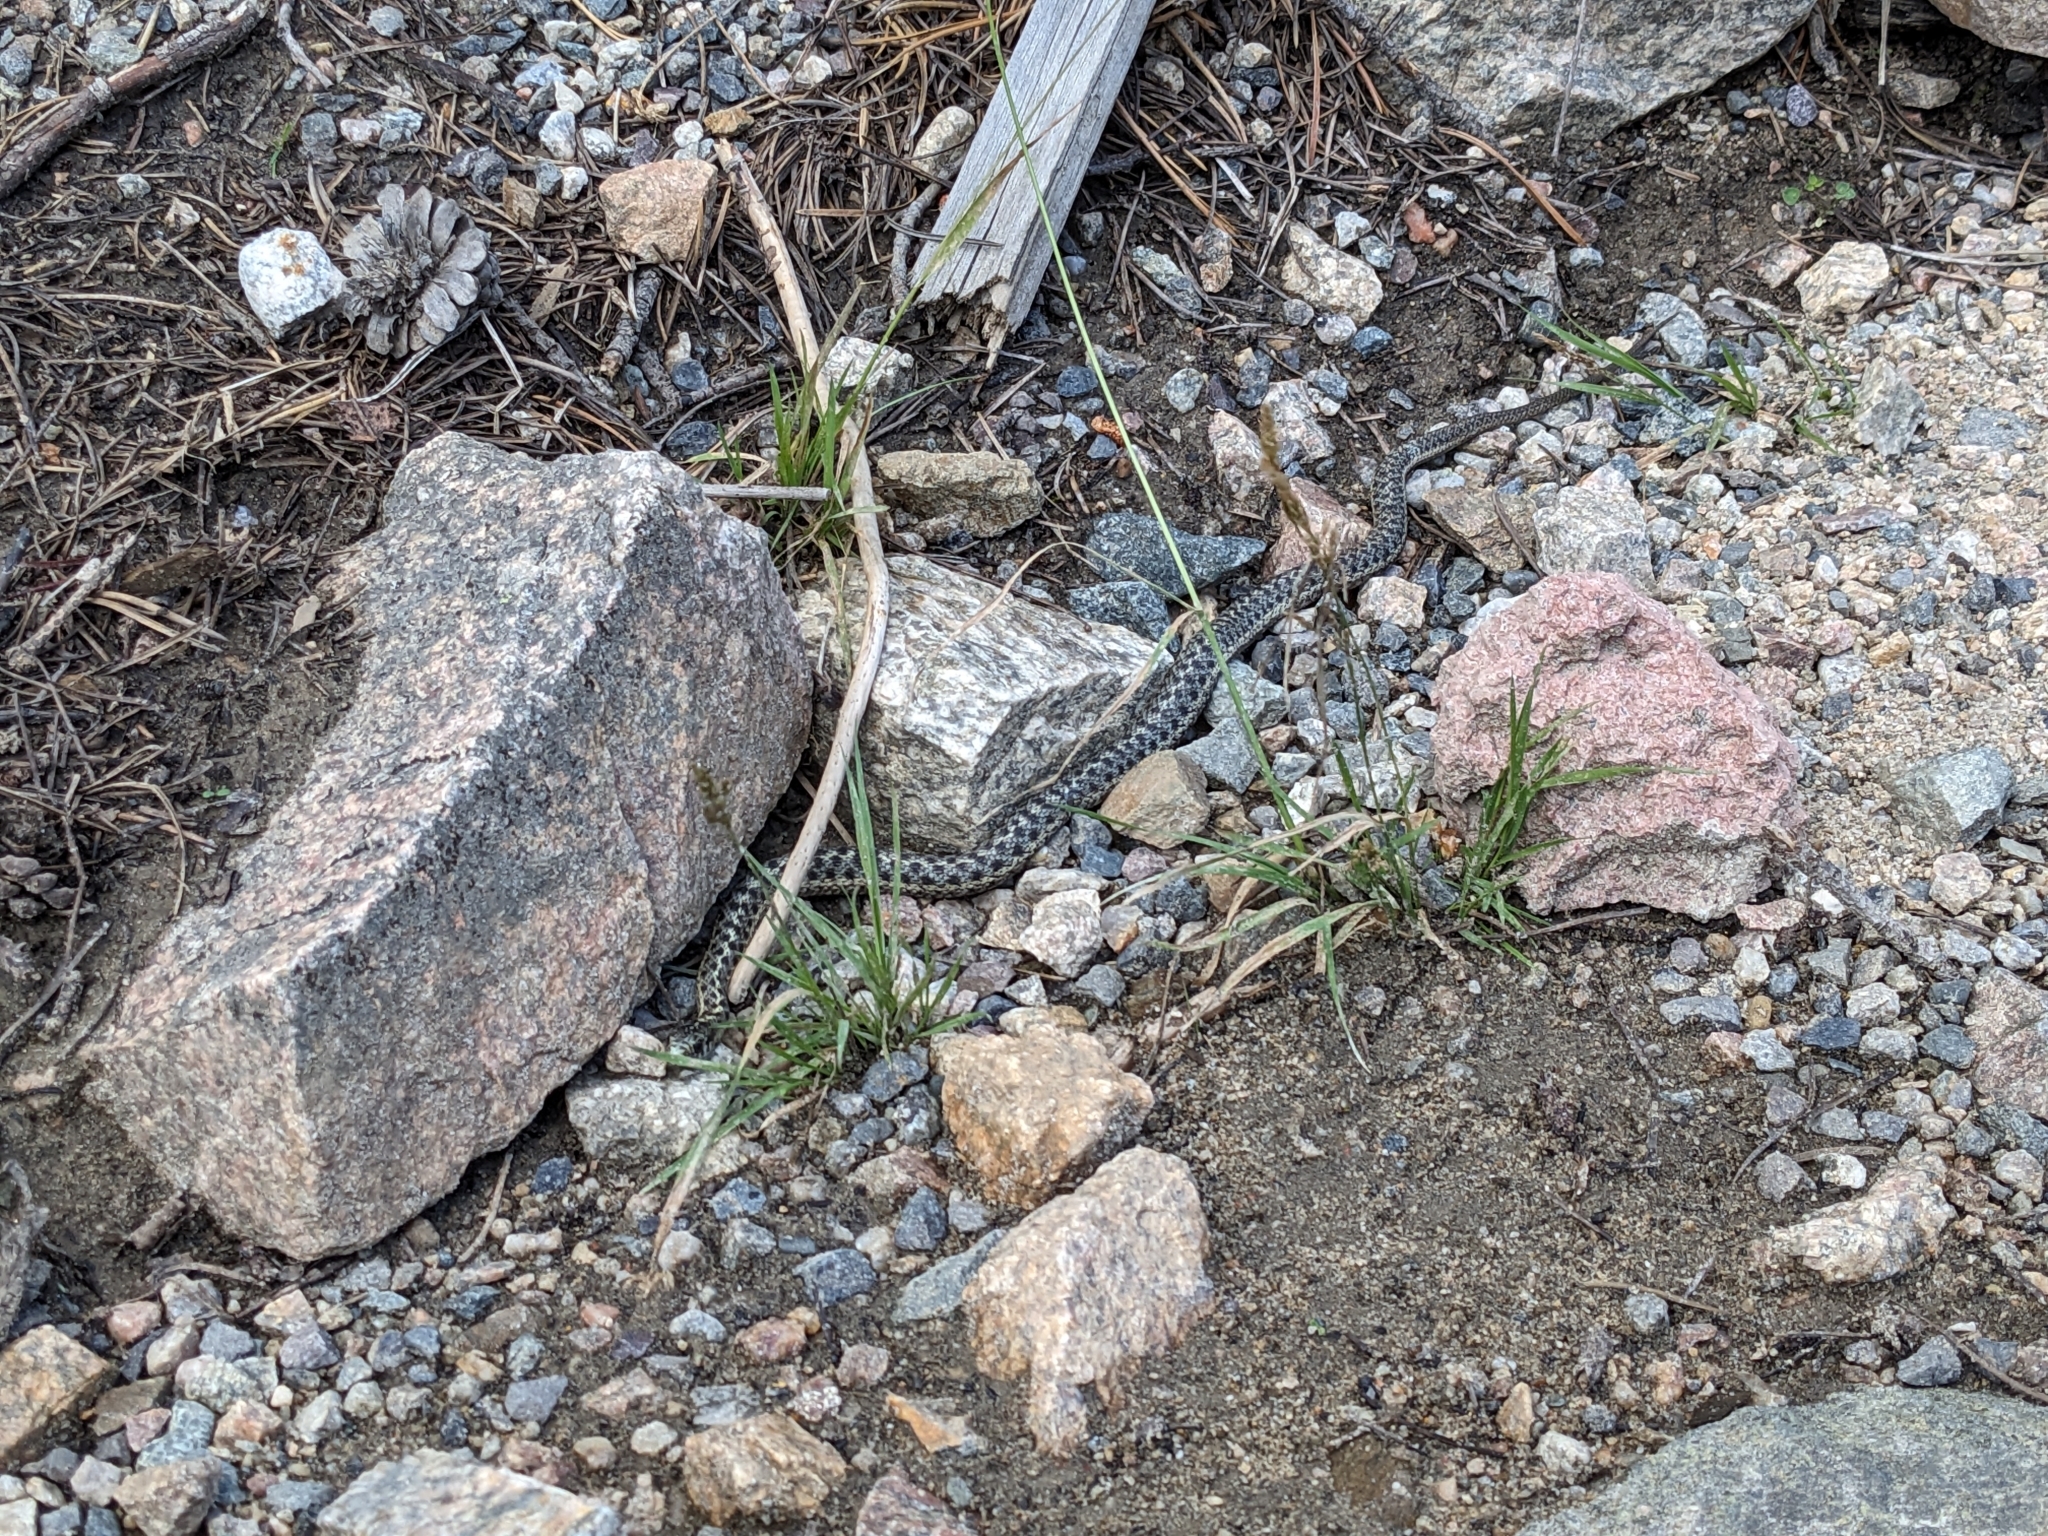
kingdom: Animalia
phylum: Chordata
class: Squamata
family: Colubridae
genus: Thamnophis
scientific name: Thamnophis elegans
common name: Western terrestrial garter snake
